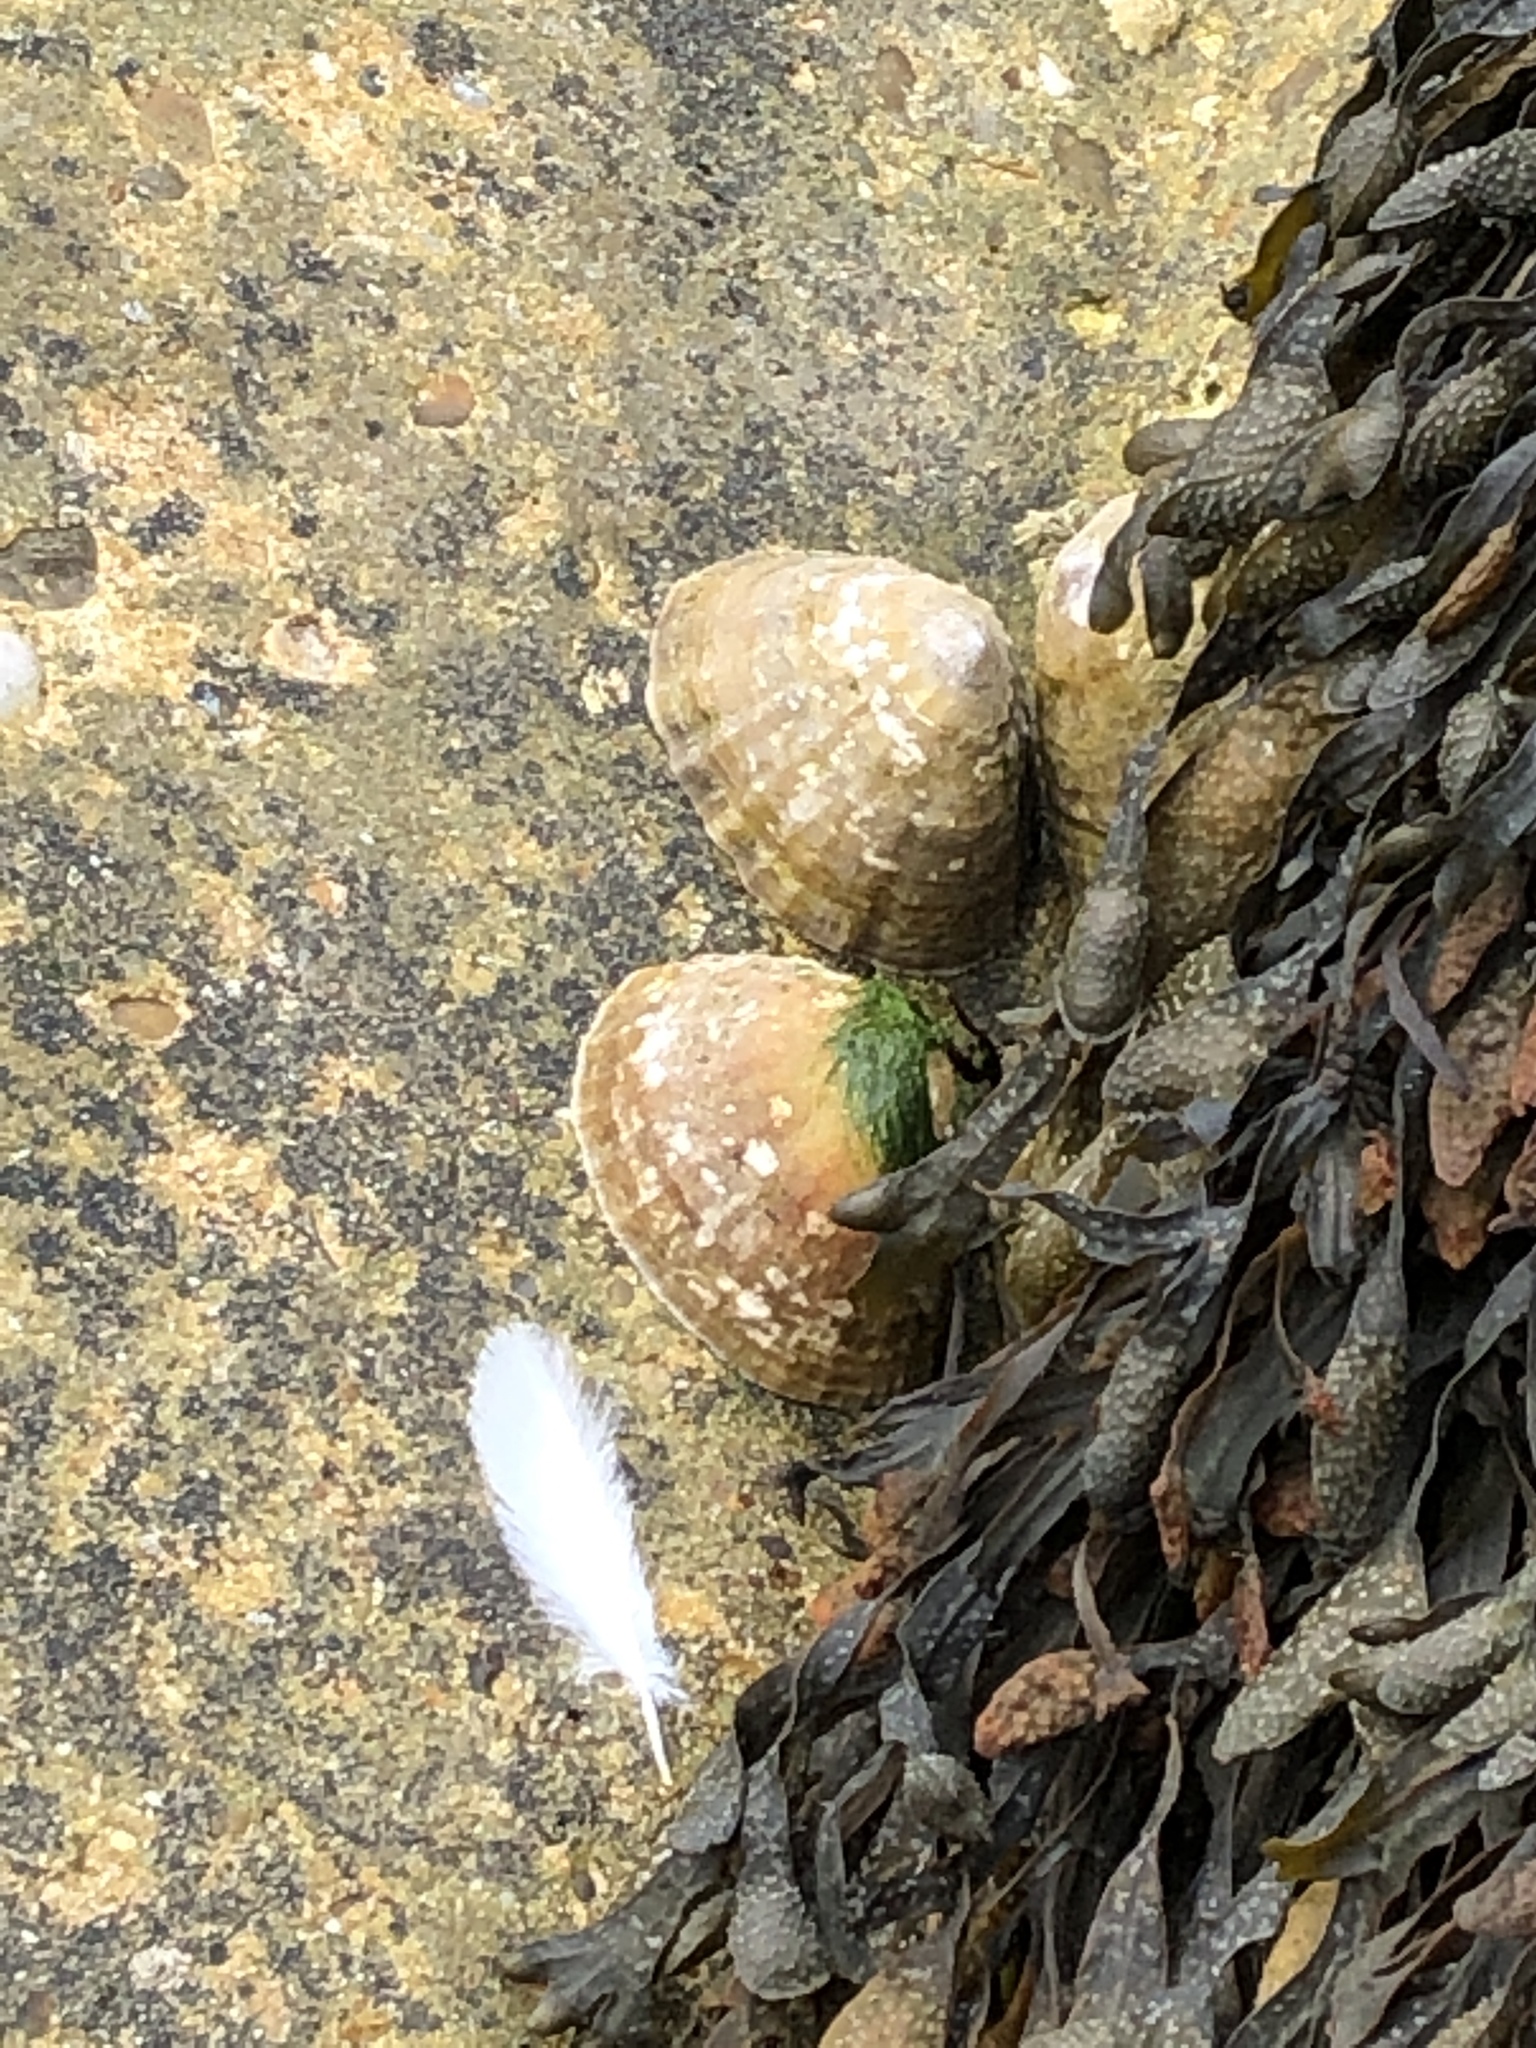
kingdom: Animalia
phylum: Mollusca
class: Gastropoda
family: Patellidae
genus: Patella
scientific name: Patella vulgata
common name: Common limpet
